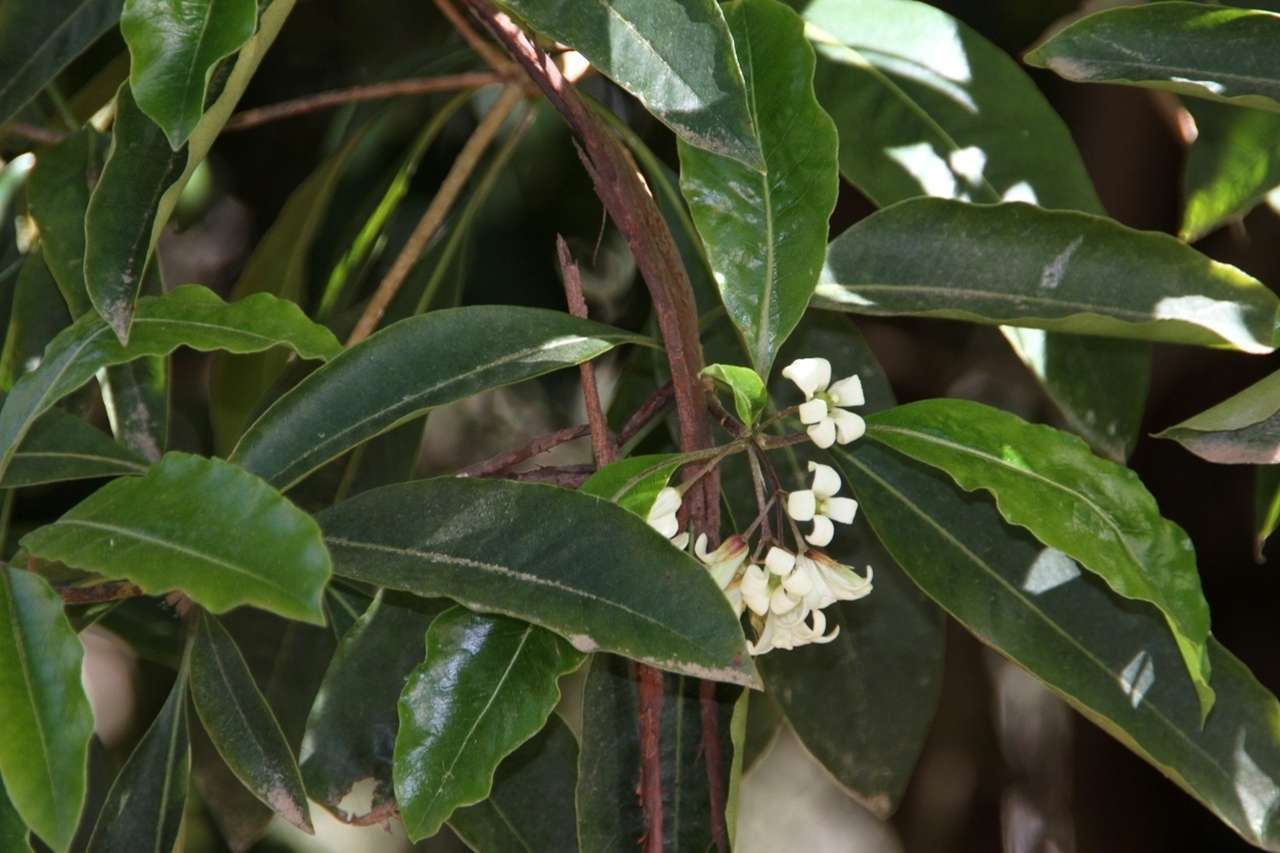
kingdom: Plantae
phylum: Tracheophyta
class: Magnoliopsida
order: Apiales
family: Pittosporaceae
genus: Pittosporum
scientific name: Pittosporum undulatum
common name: Australian cheesewood
